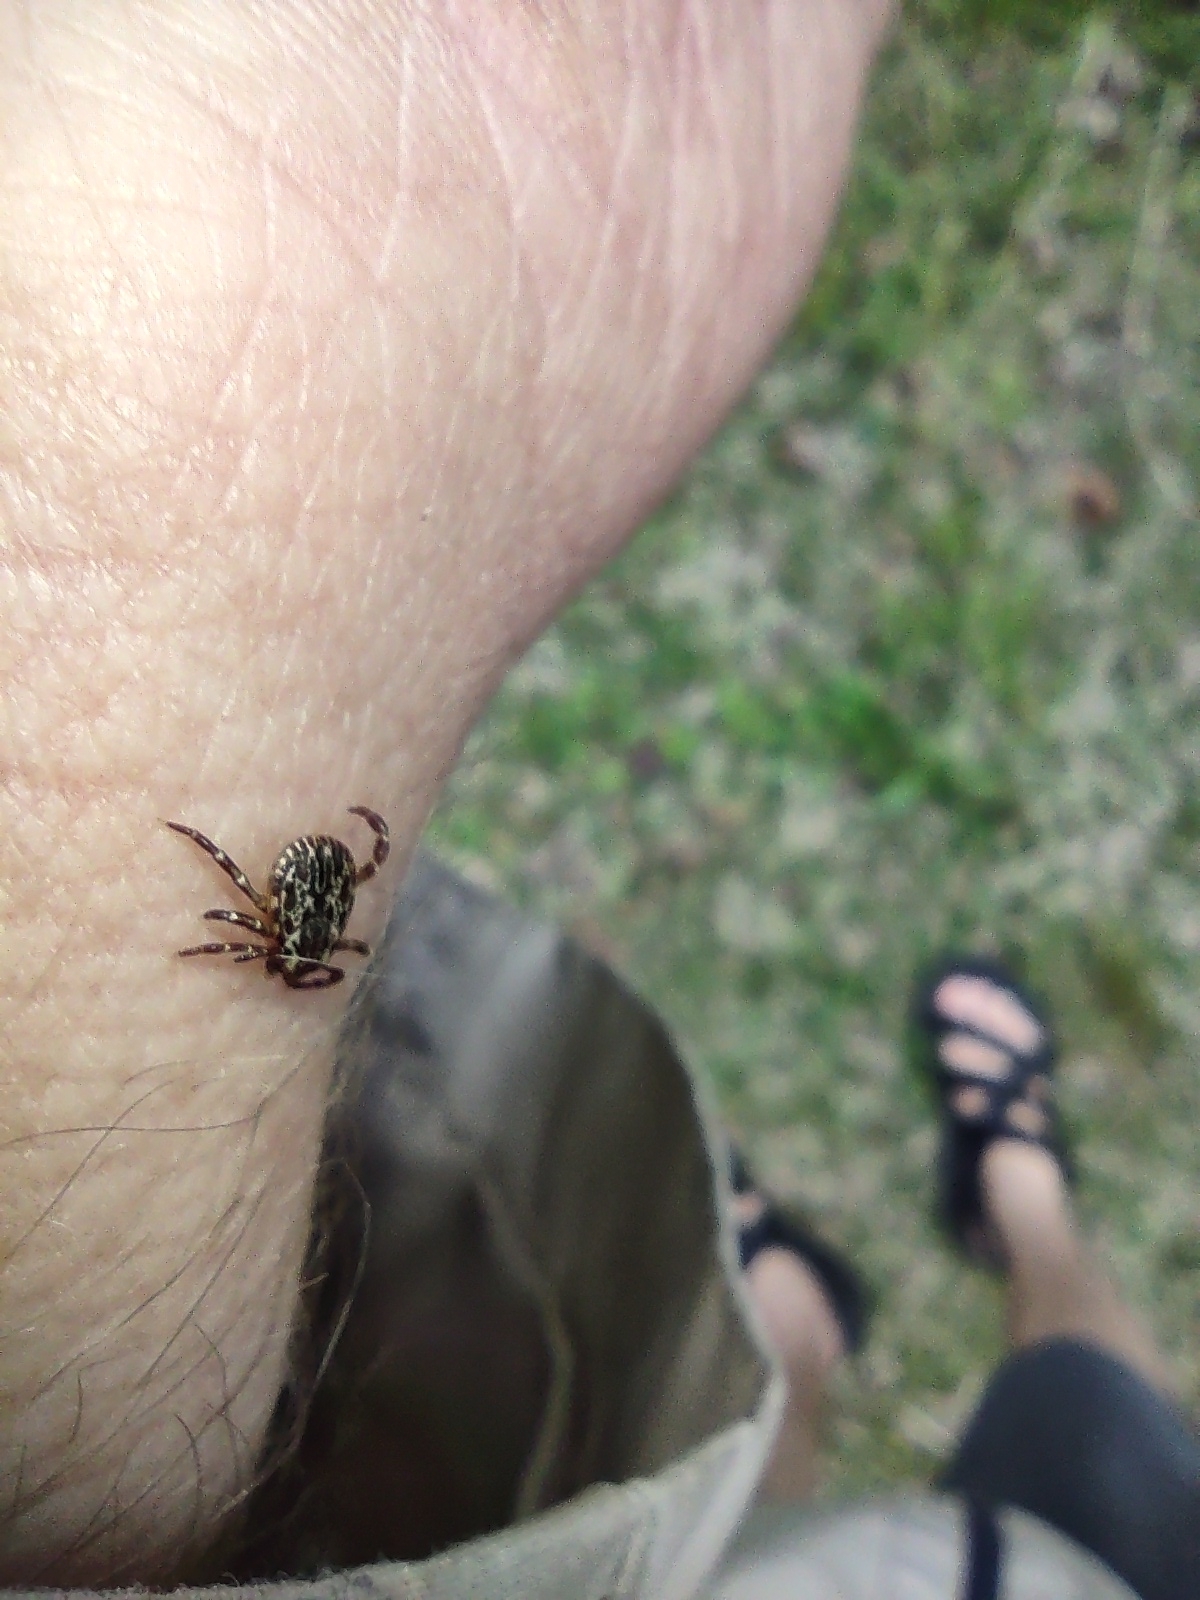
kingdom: Animalia
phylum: Arthropoda
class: Arachnida
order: Ixodida
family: Ixodidae
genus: Dermacentor
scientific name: Dermacentor variabilis
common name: American dog tick
